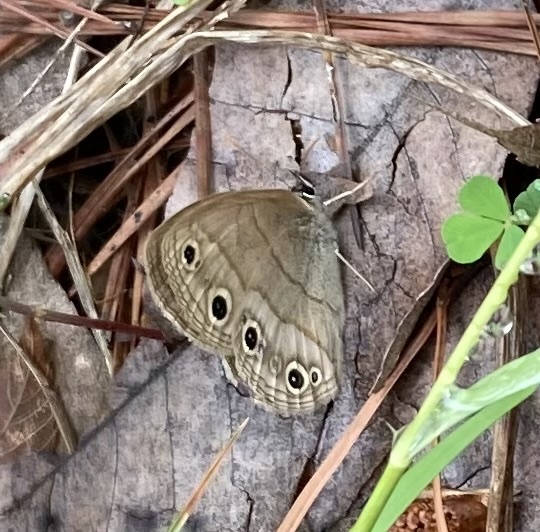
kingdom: Animalia
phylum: Arthropoda
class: Insecta
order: Lepidoptera
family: Nymphalidae
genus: Euptychia
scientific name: Euptychia cymela
